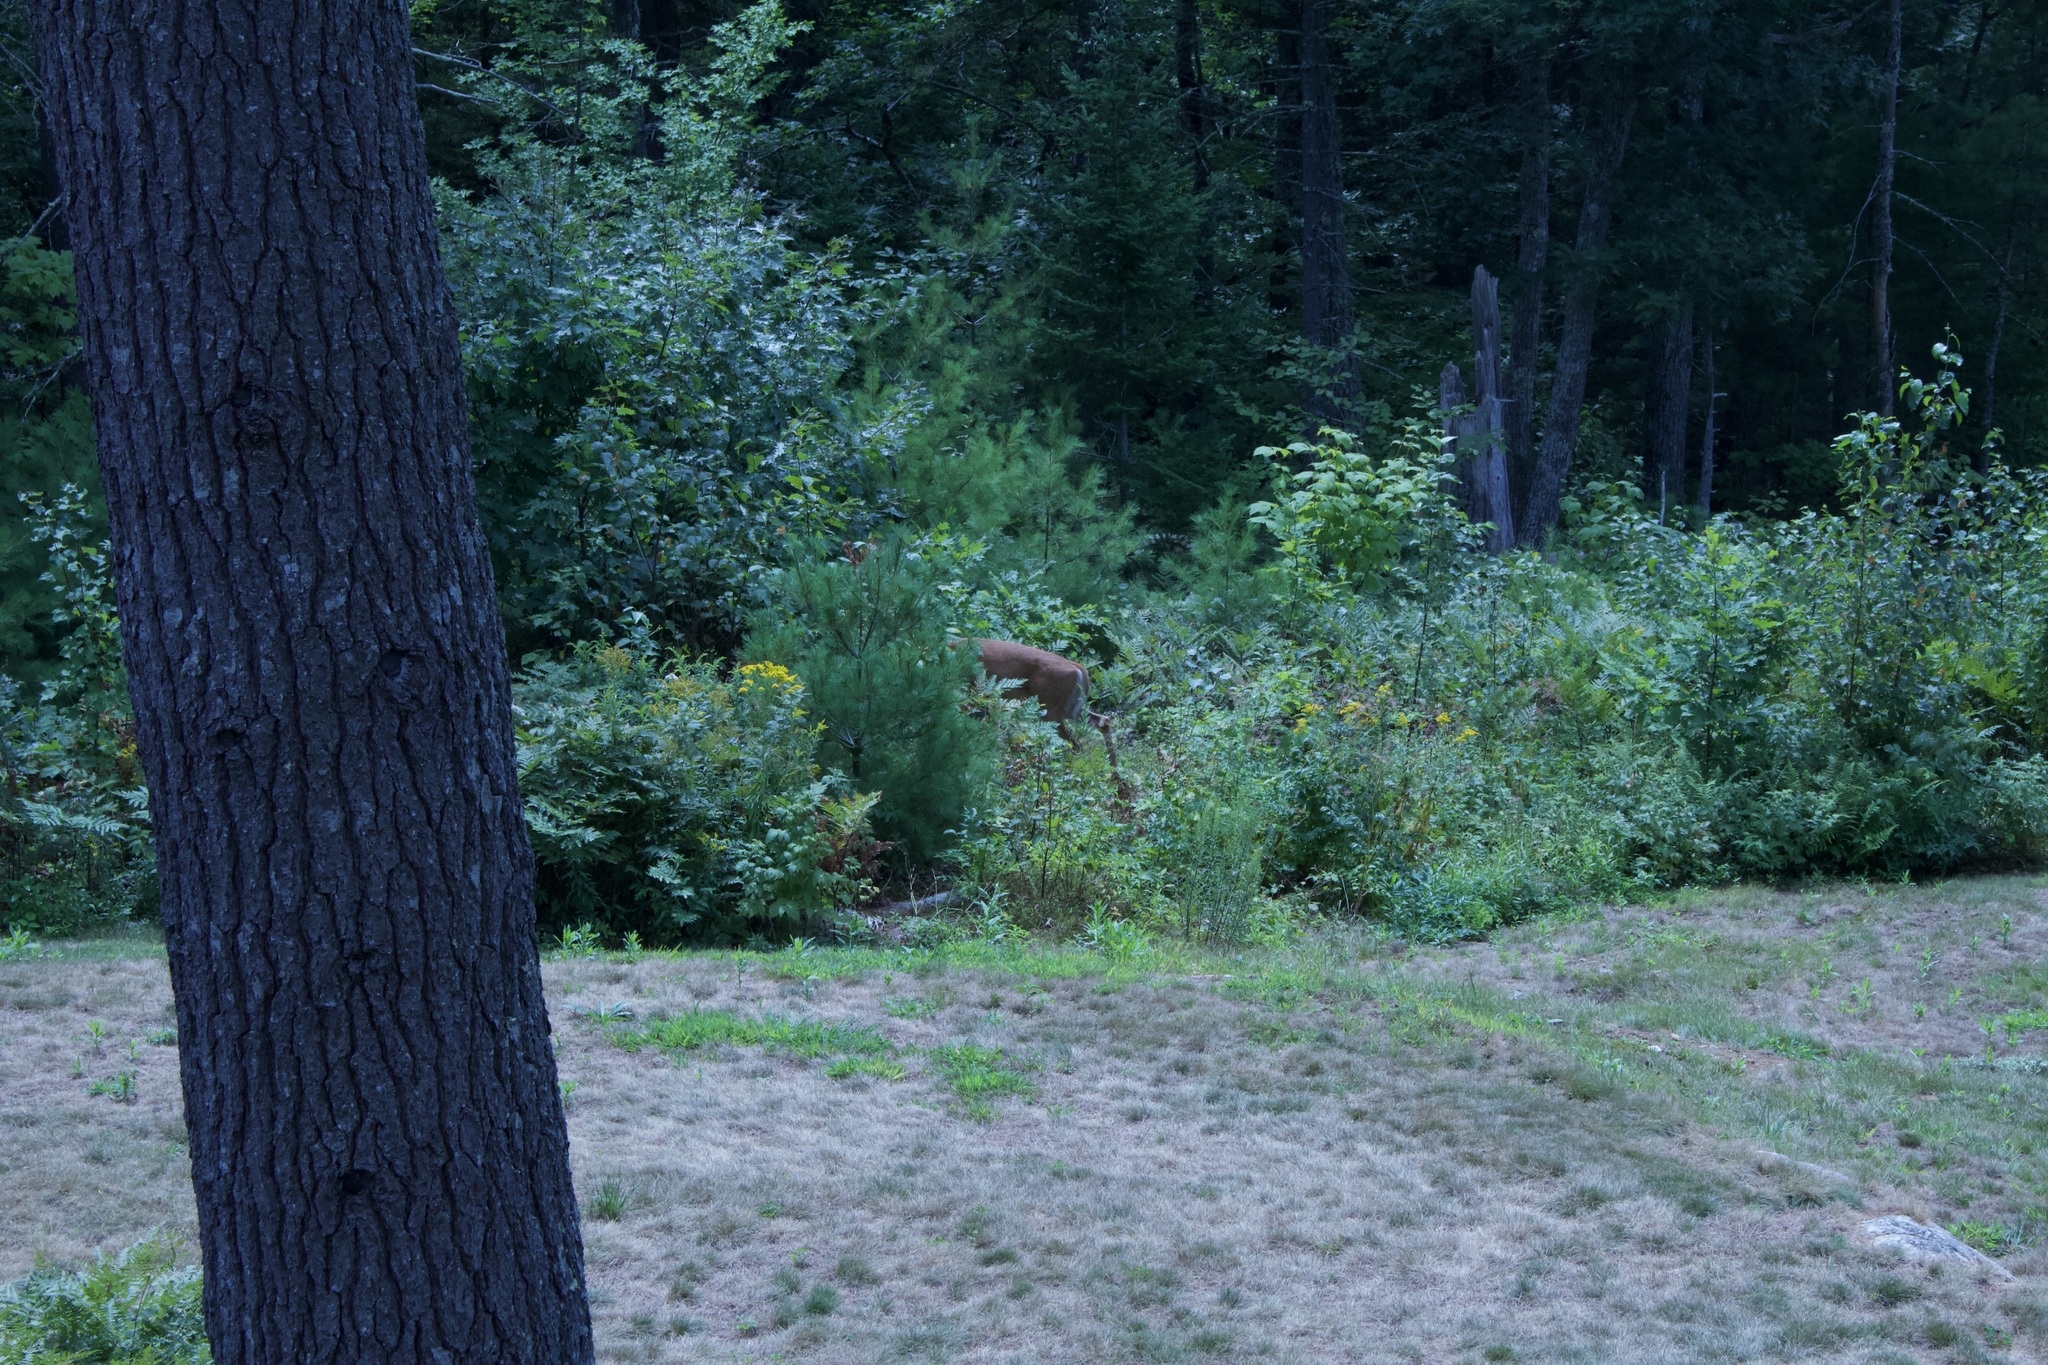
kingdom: Animalia
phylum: Chordata
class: Mammalia
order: Artiodactyla
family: Cervidae
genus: Odocoileus
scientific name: Odocoileus virginianus
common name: White-tailed deer
